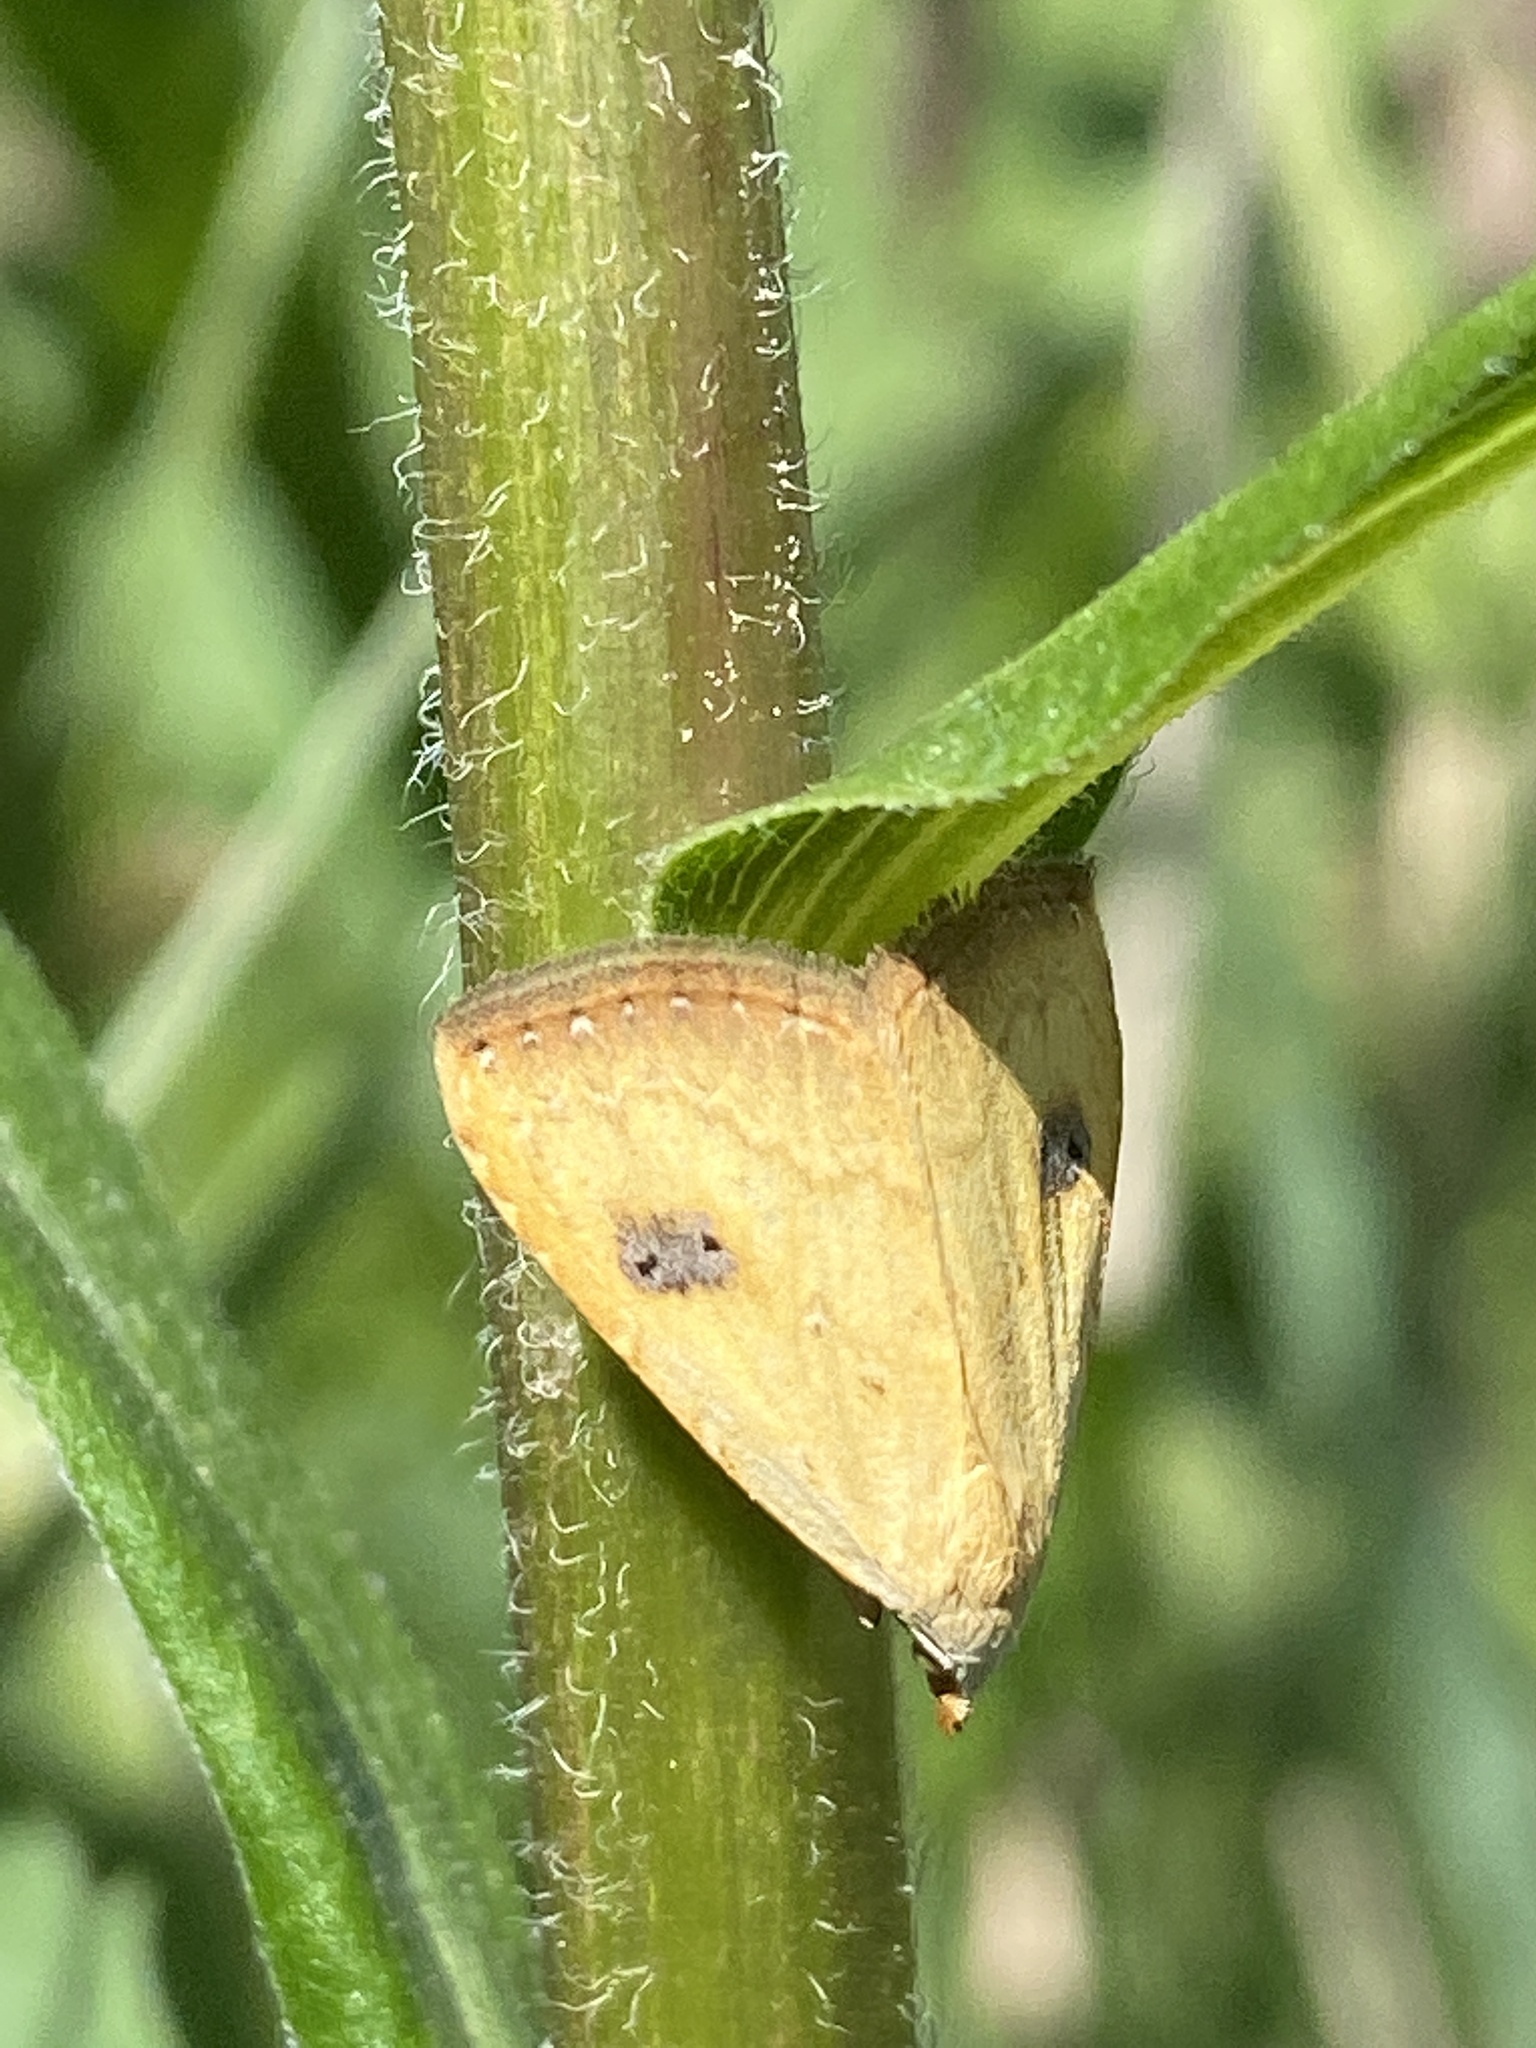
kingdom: Animalia
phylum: Arthropoda
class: Insecta
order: Lepidoptera
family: Erebidae
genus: Rivula
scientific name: Rivula sericealis
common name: Straw dot
